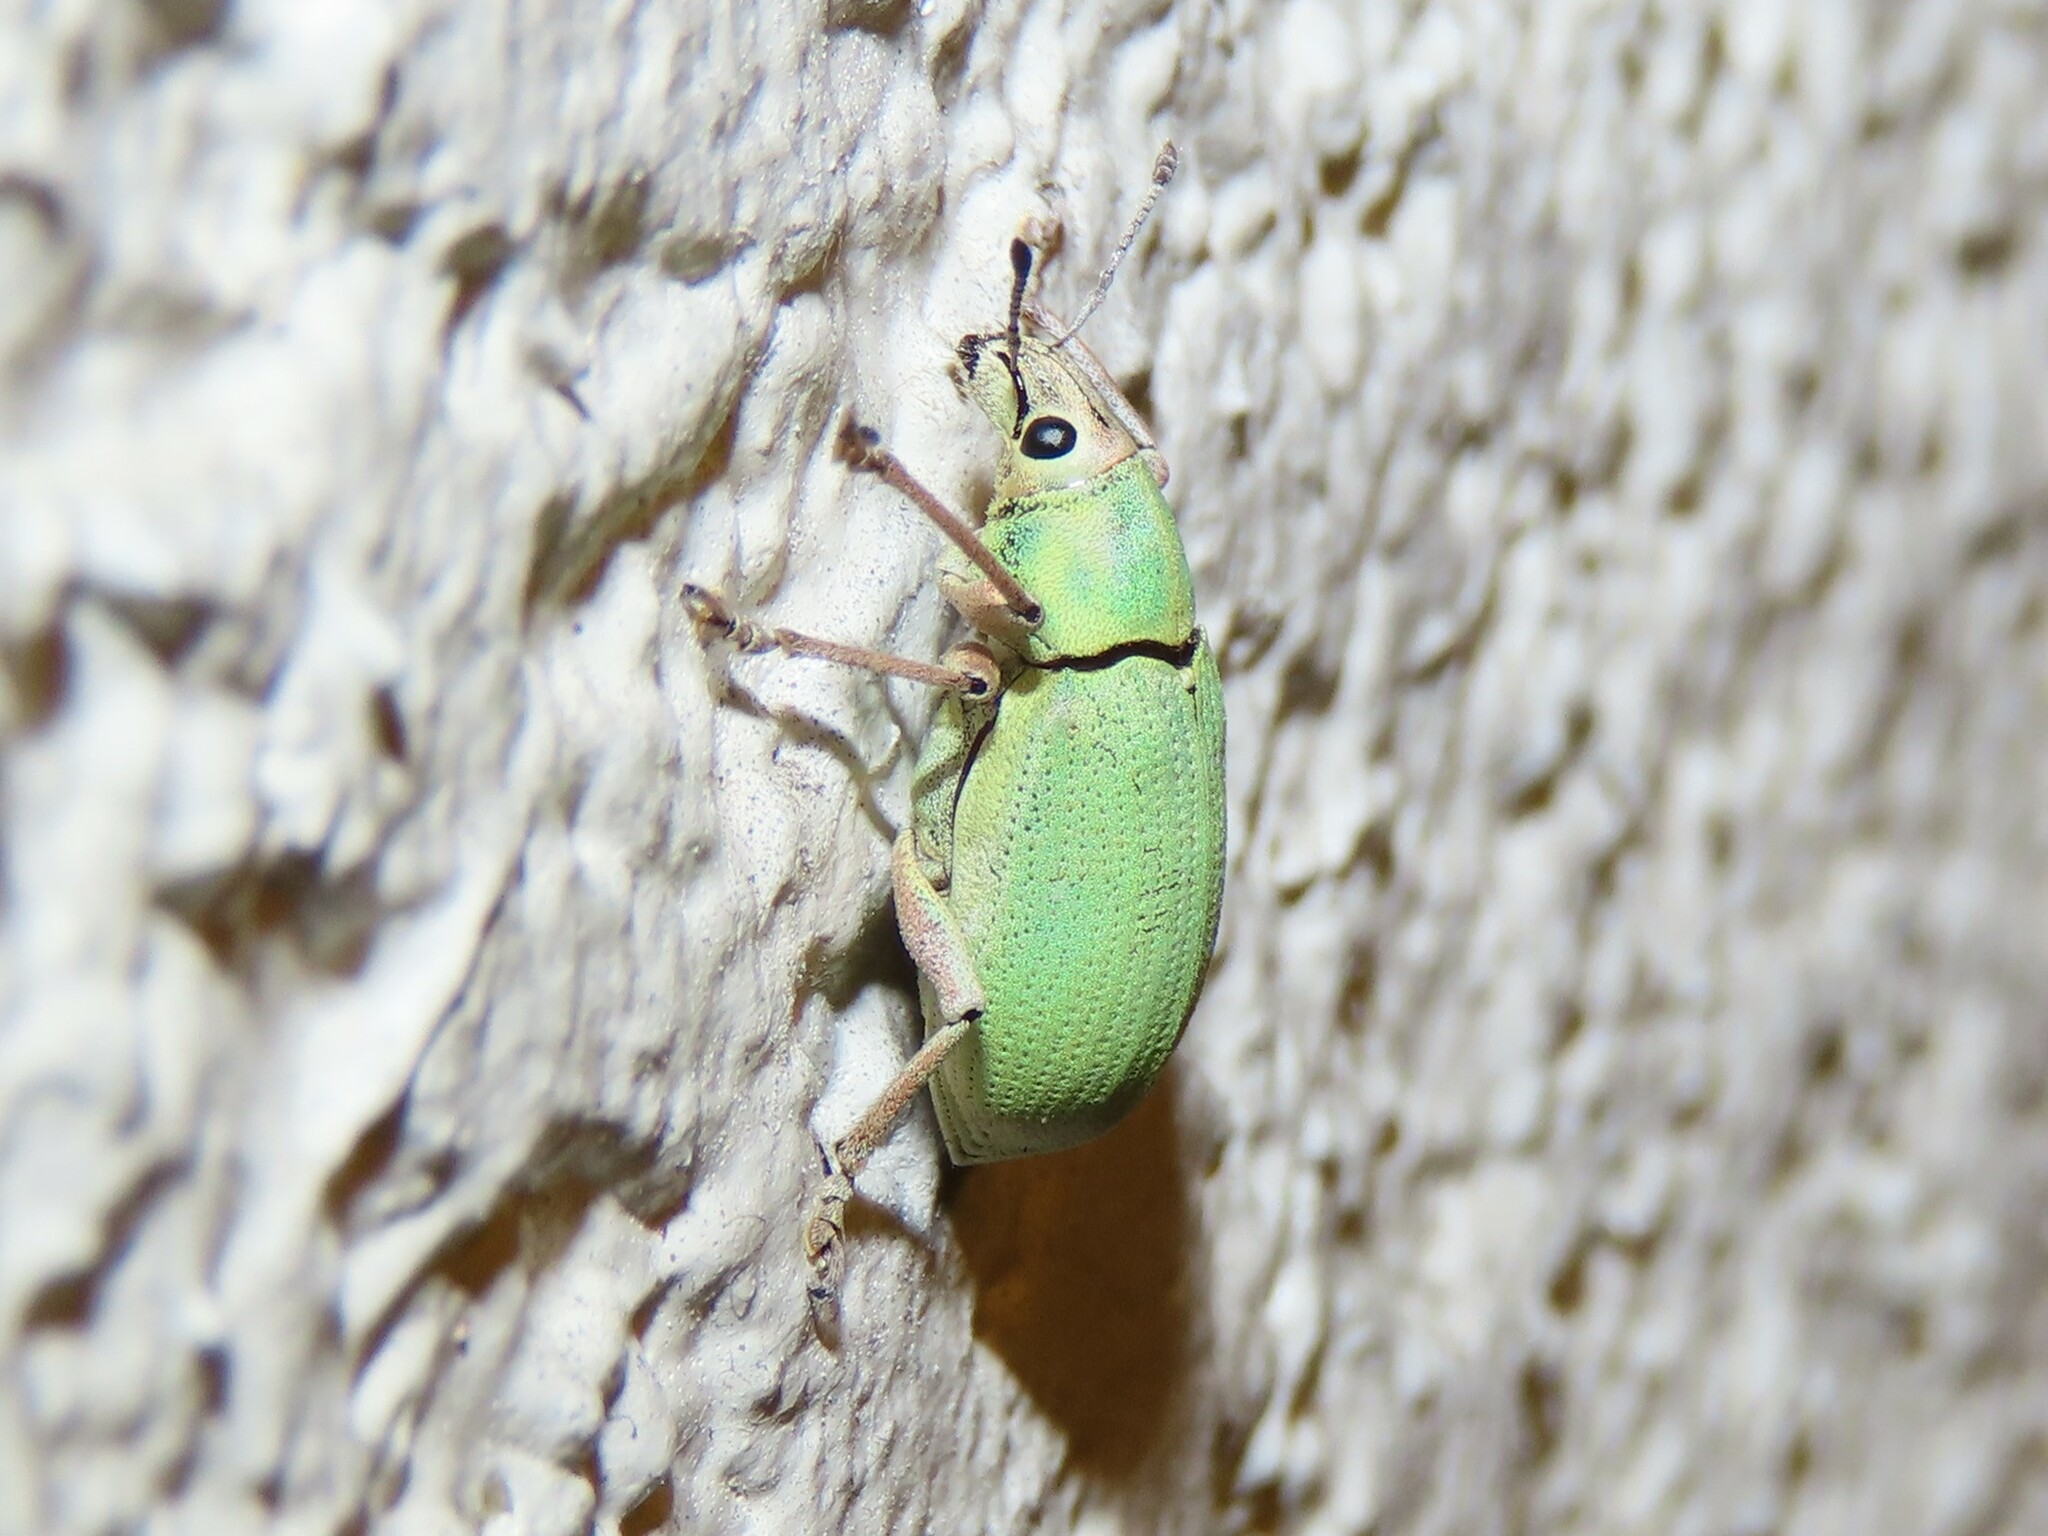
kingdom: Animalia
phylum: Arthropoda
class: Insecta
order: Coleoptera
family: Curculionidae
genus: Pachnaeus
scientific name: Pachnaeus litus
